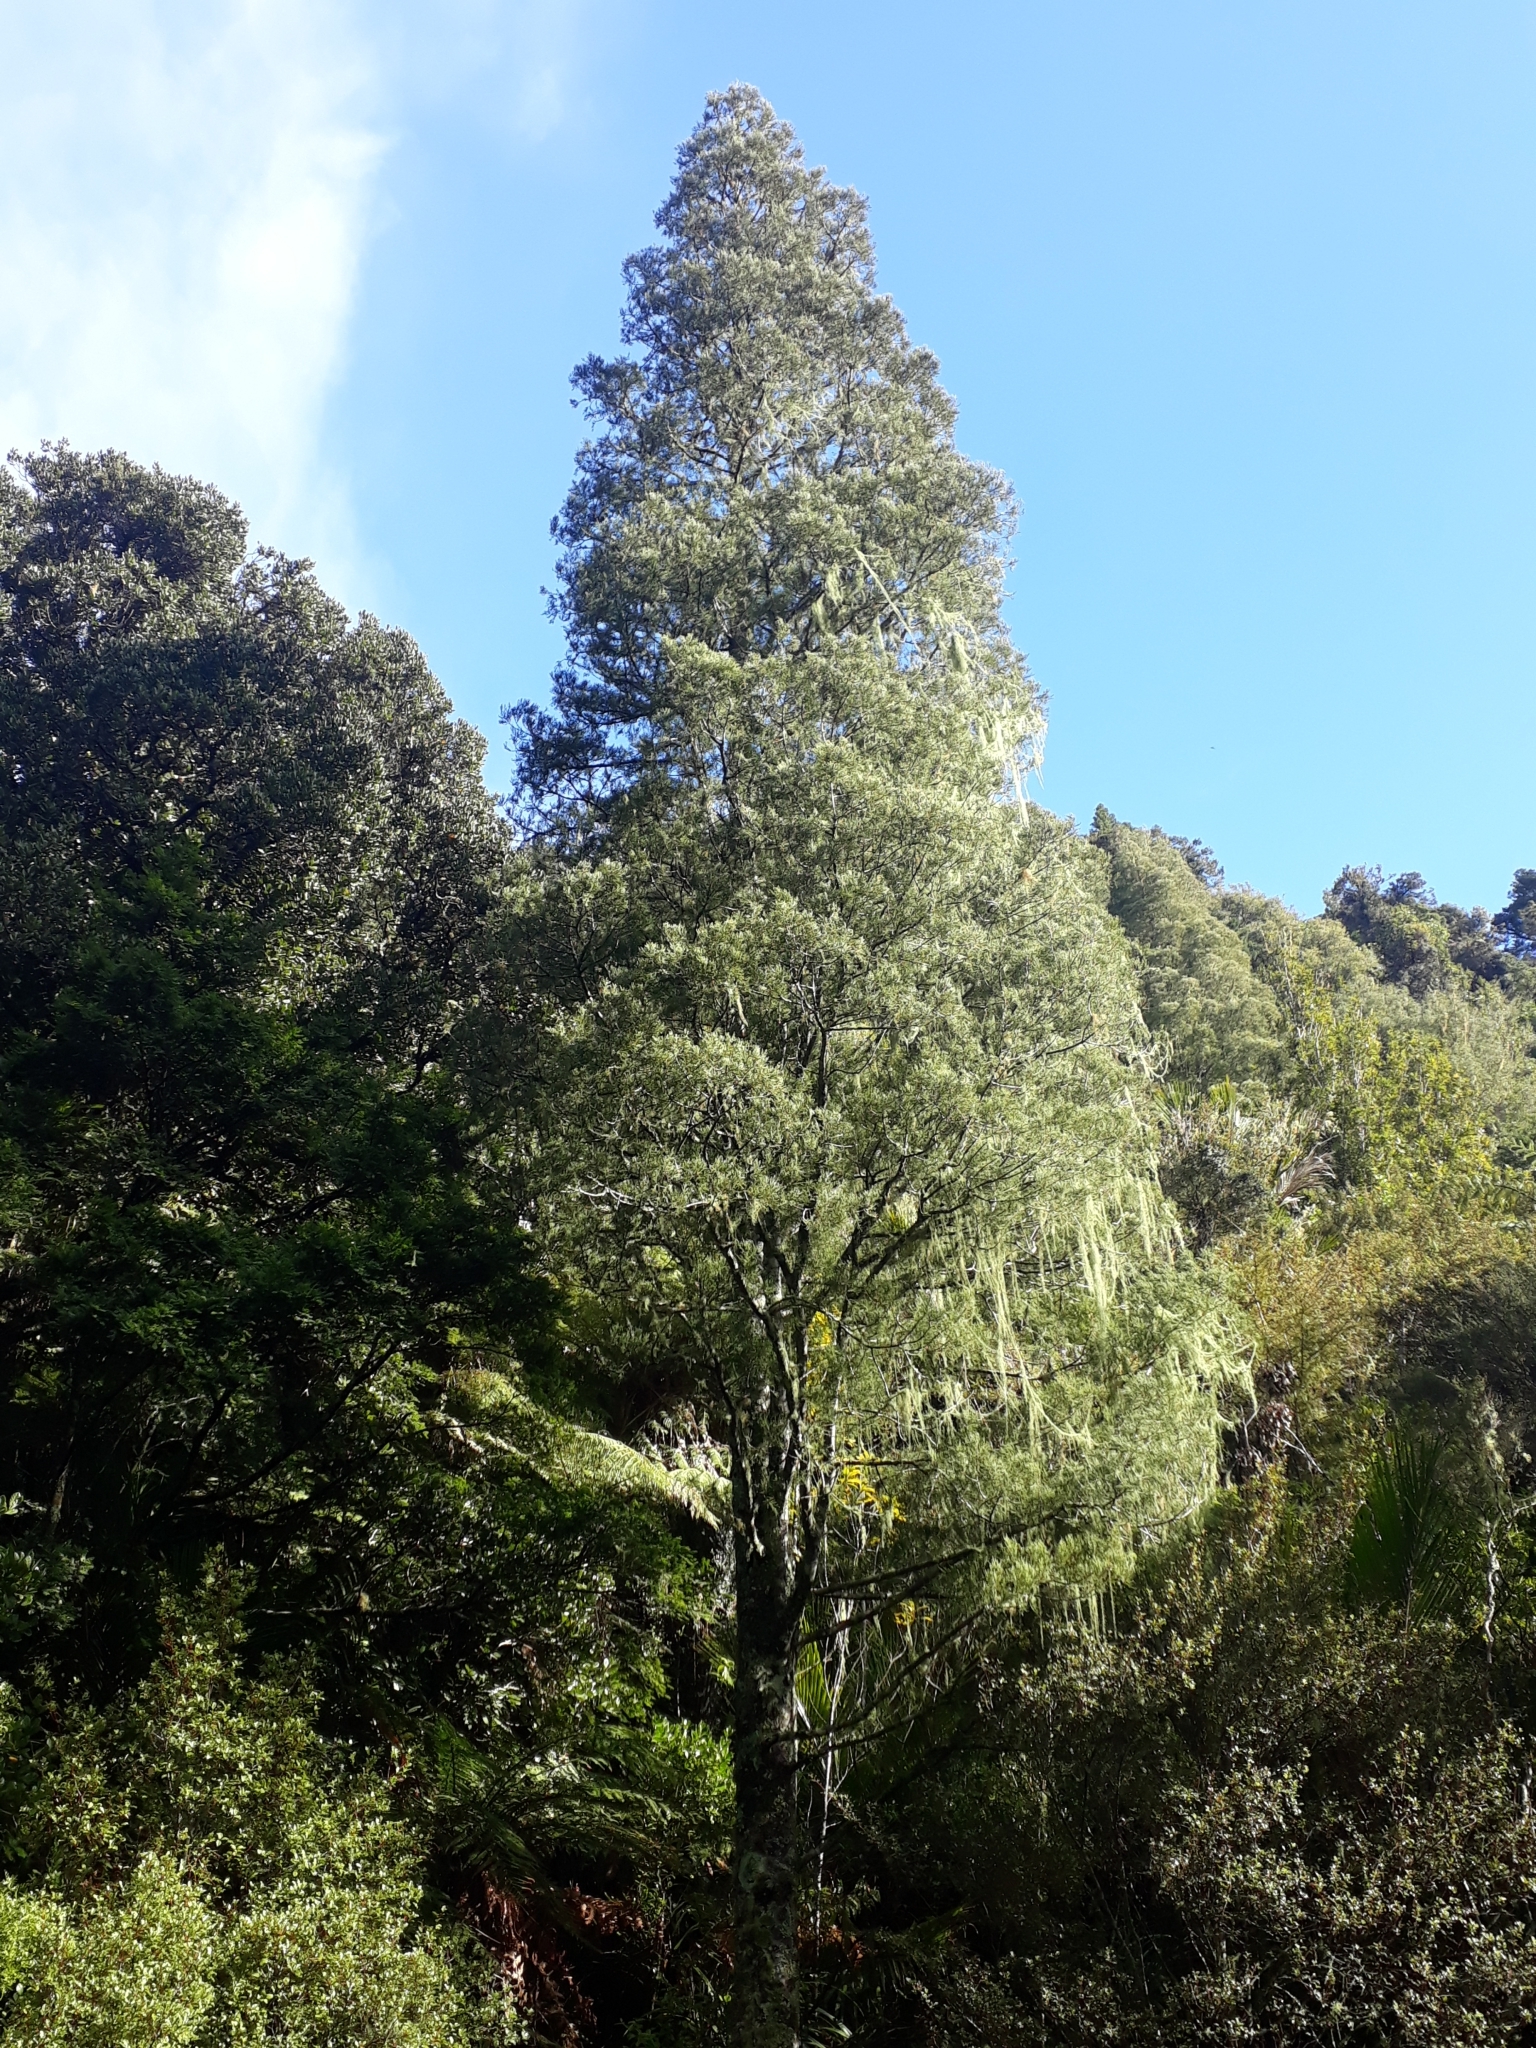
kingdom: Plantae
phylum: Tracheophyta
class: Pinopsida
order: Pinales
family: Podocarpaceae
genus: Dacrycarpus
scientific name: Dacrycarpus dacrydioides
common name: White pine
